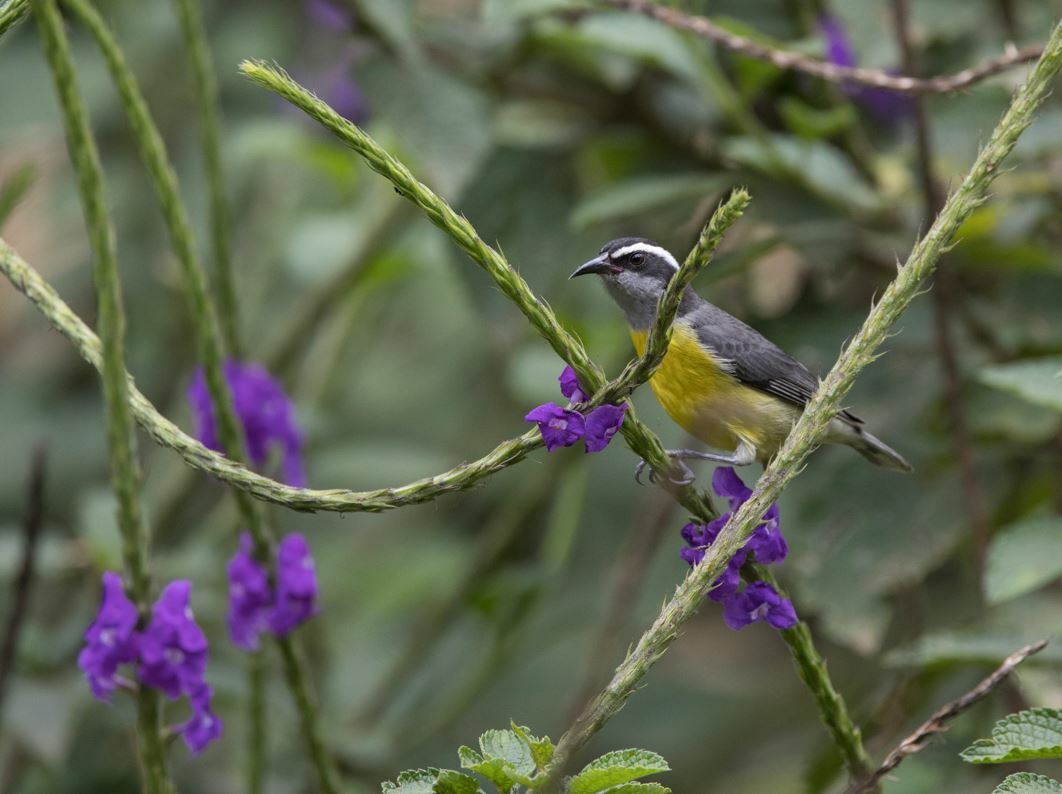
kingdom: Animalia
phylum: Chordata
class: Aves
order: Passeriformes
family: Thraupidae
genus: Coereba
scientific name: Coereba flaveola
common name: Bananaquit
